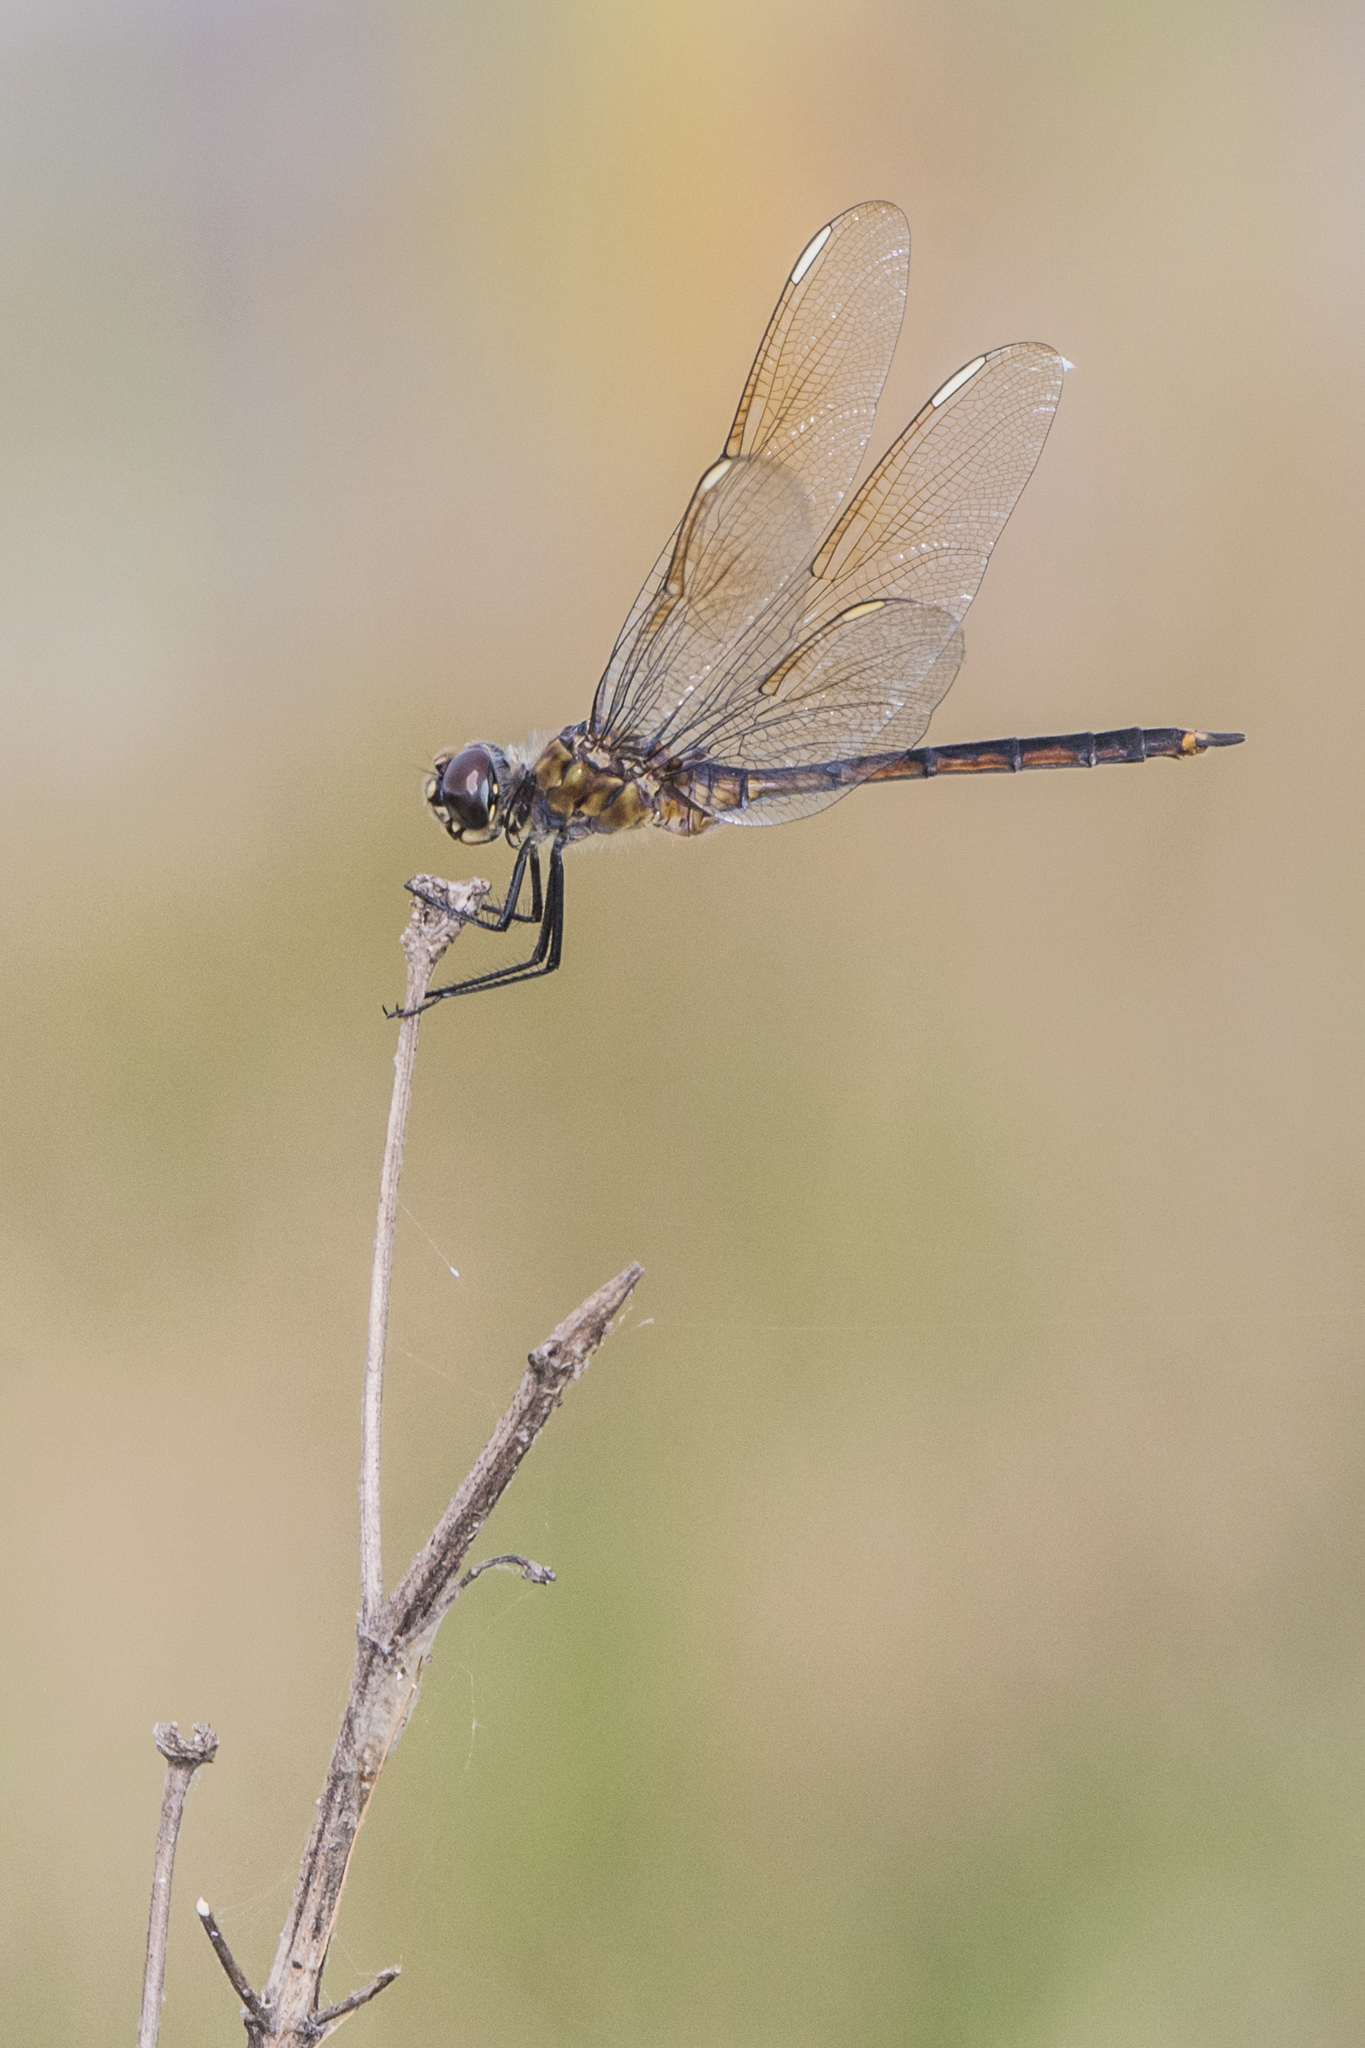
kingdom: Animalia
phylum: Arthropoda
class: Insecta
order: Odonata
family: Libellulidae
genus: Brachymesia
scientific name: Brachymesia gravida
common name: Four-spotted pennant
